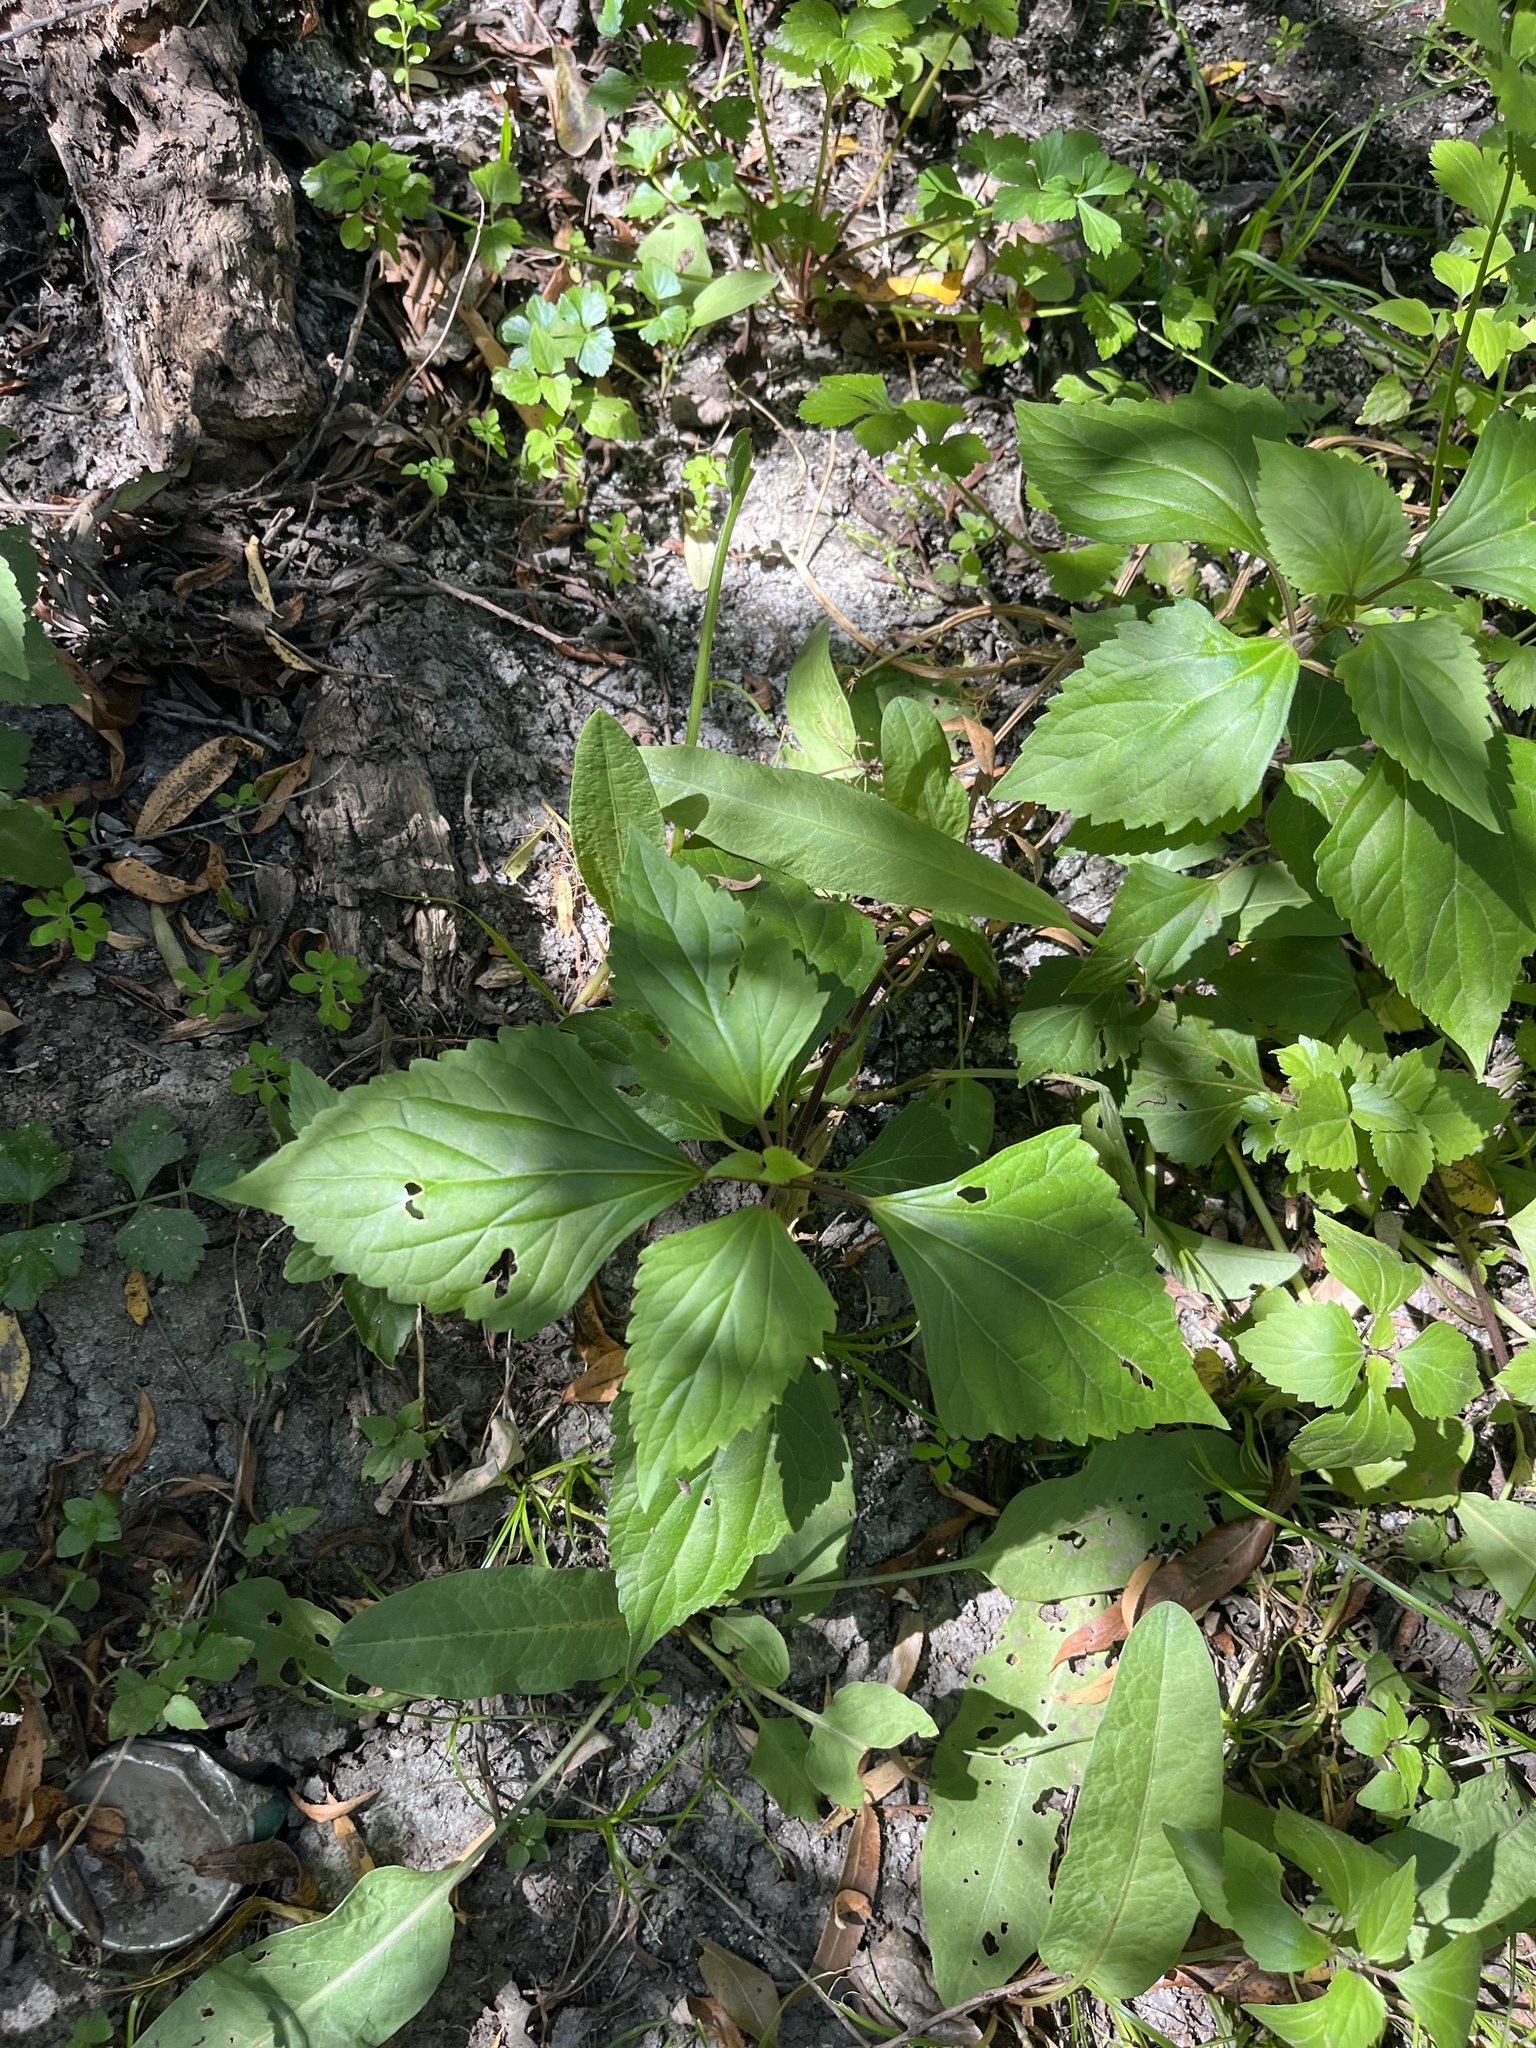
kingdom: Plantae
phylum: Tracheophyta
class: Magnoliopsida
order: Asterales
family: Asteraceae
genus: Ageratina
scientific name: Ageratina adenophora
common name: Sticky snakeroot
